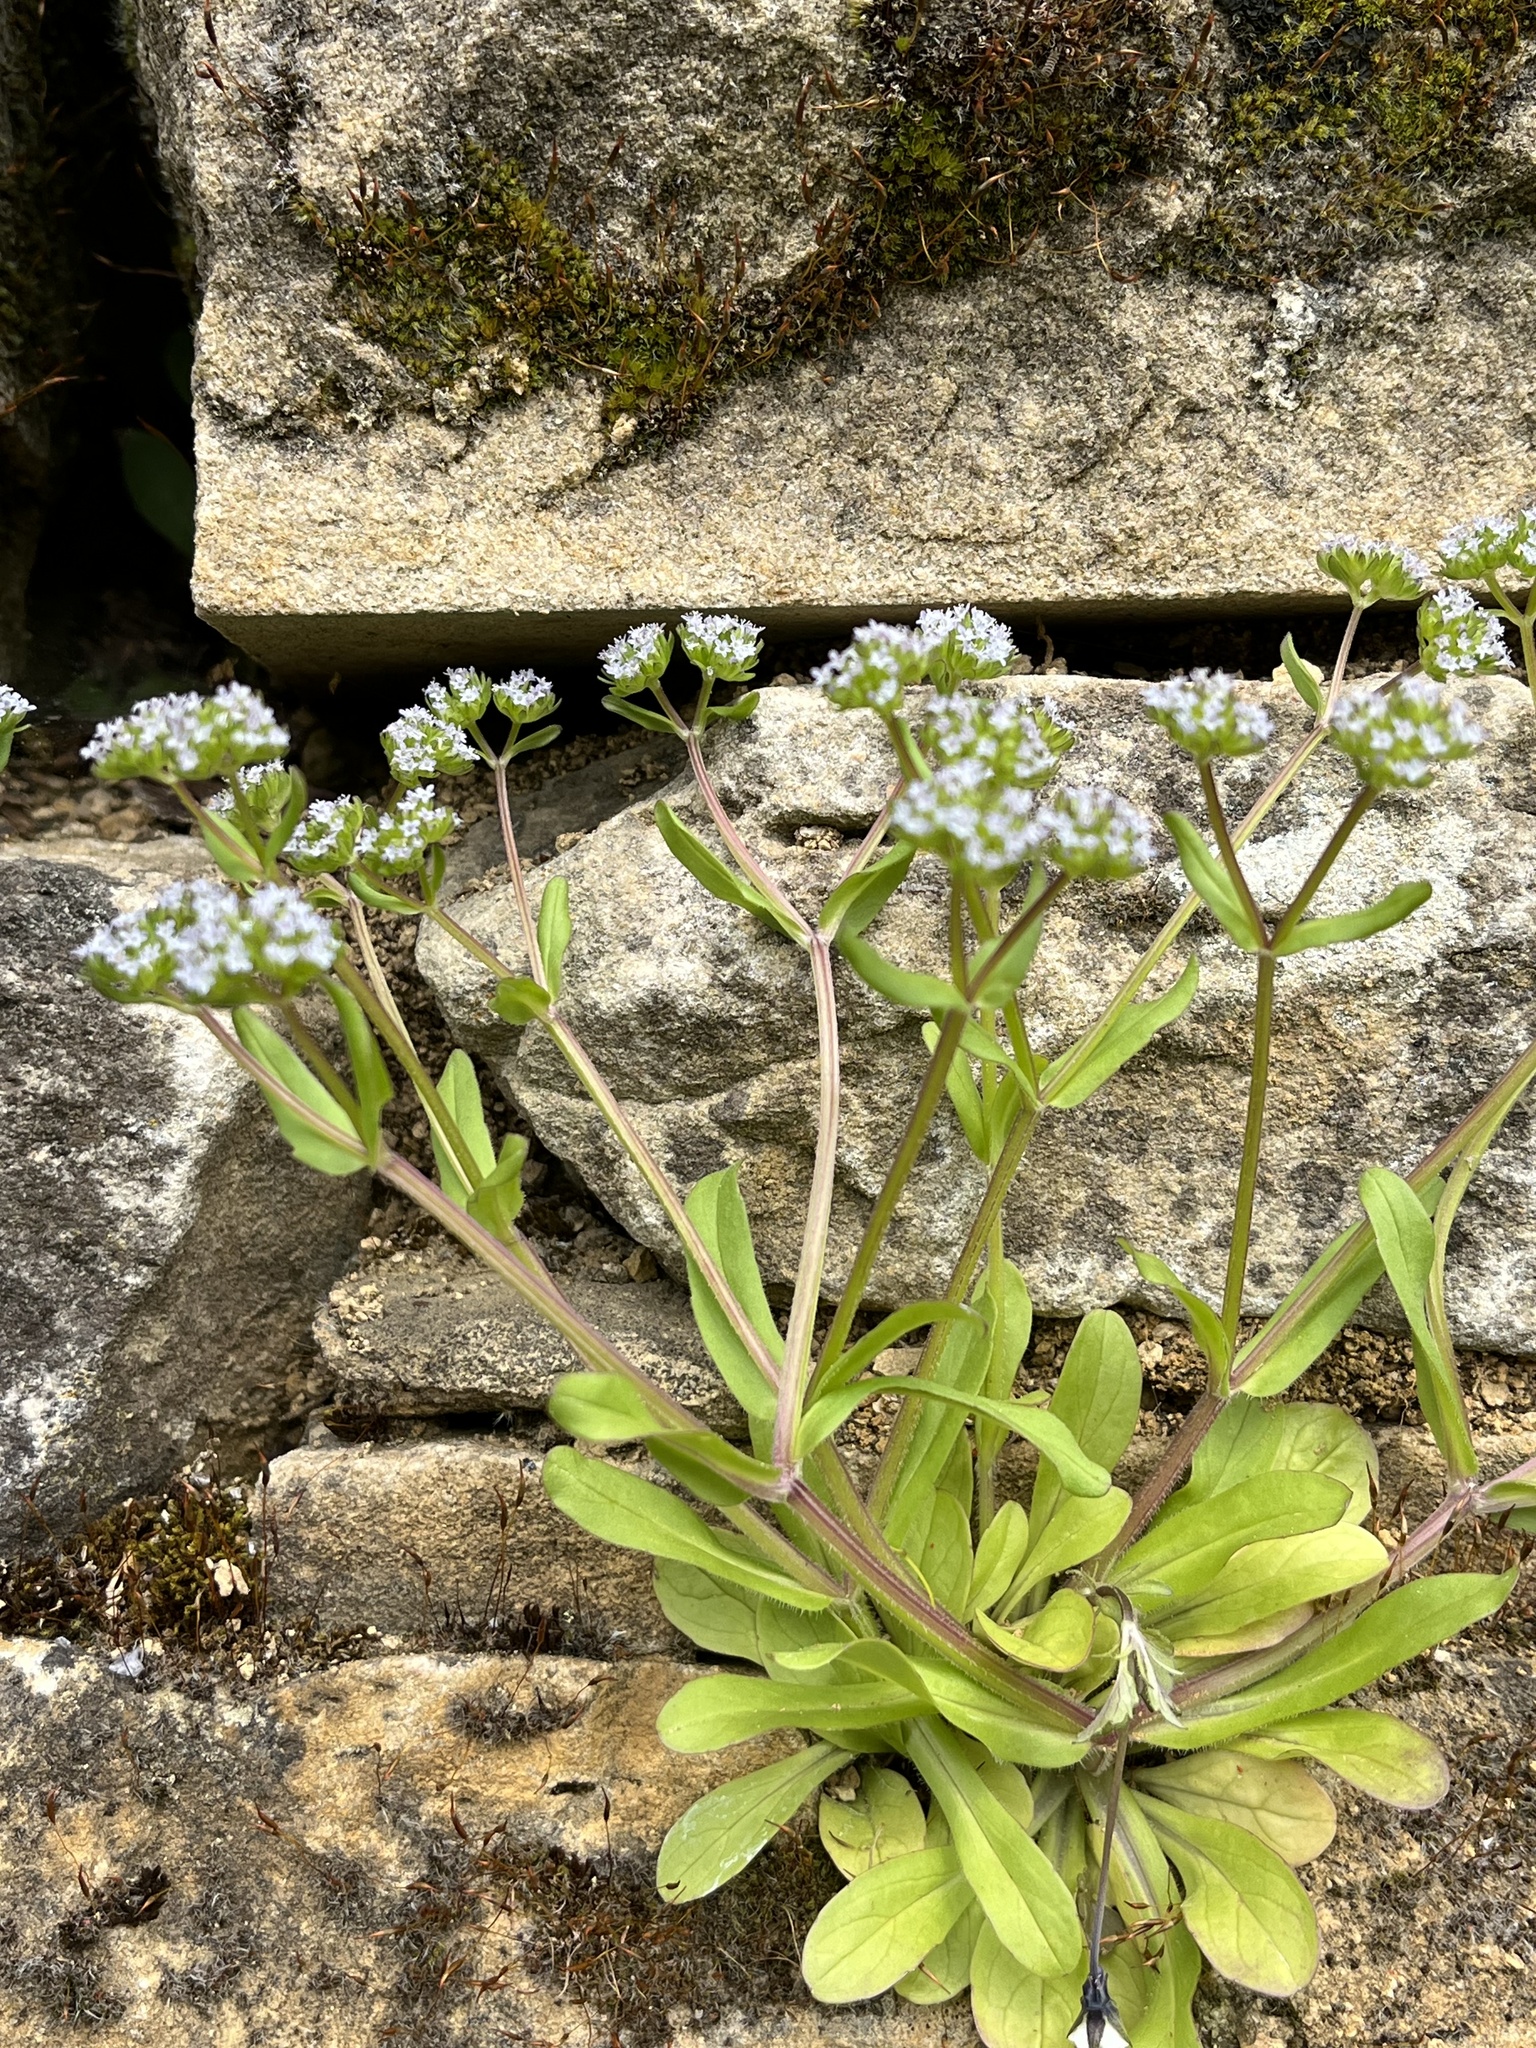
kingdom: Plantae
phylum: Tracheophyta
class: Magnoliopsida
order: Dipsacales
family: Caprifoliaceae
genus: Valerianella
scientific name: Valerianella locusta
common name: Common cornsalad
